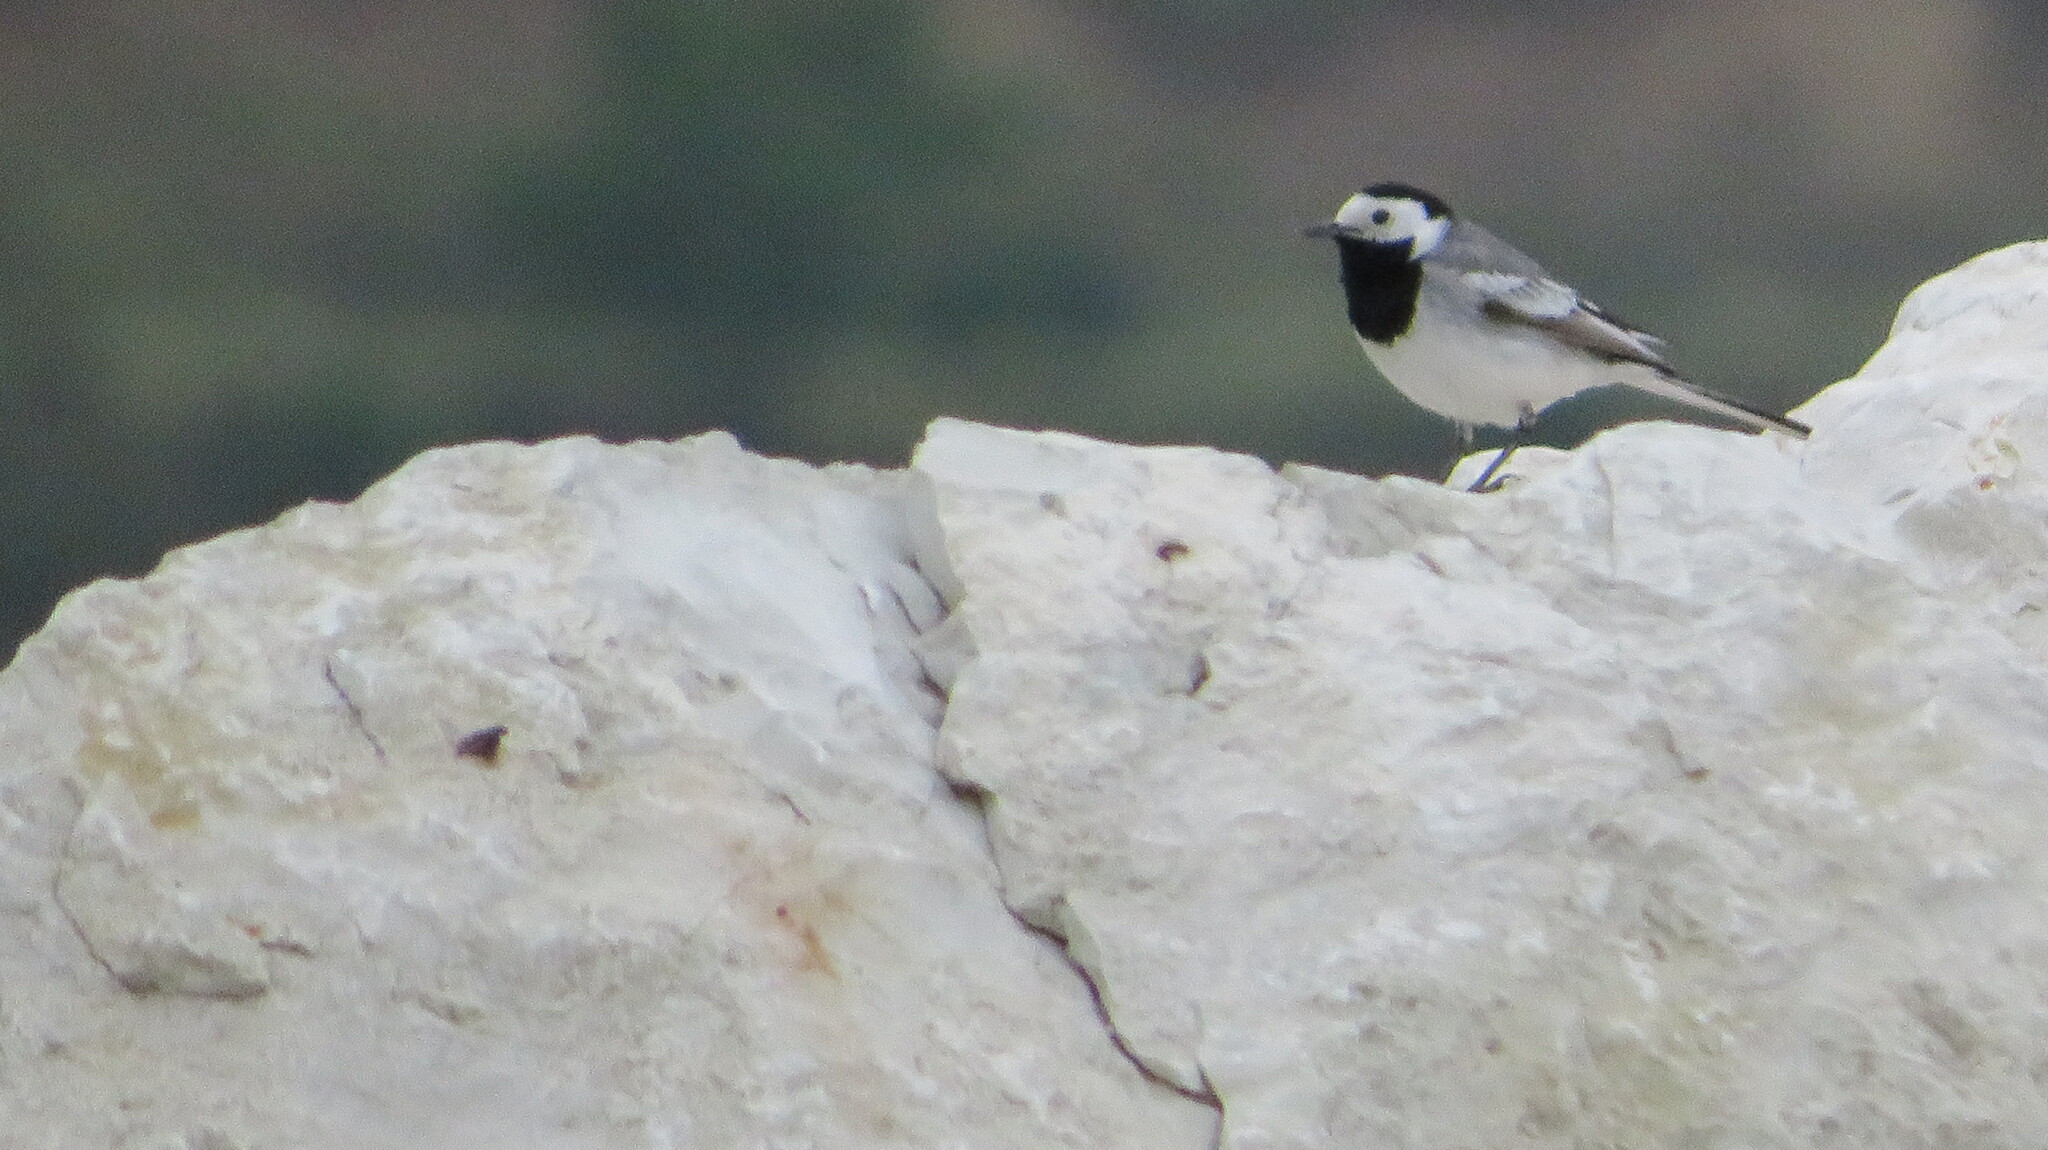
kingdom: Animalia
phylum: Chordata
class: Aves
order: Passeriformes
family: Motacillidae
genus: Motacilla
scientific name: Motacilla alba
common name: White wagtail
